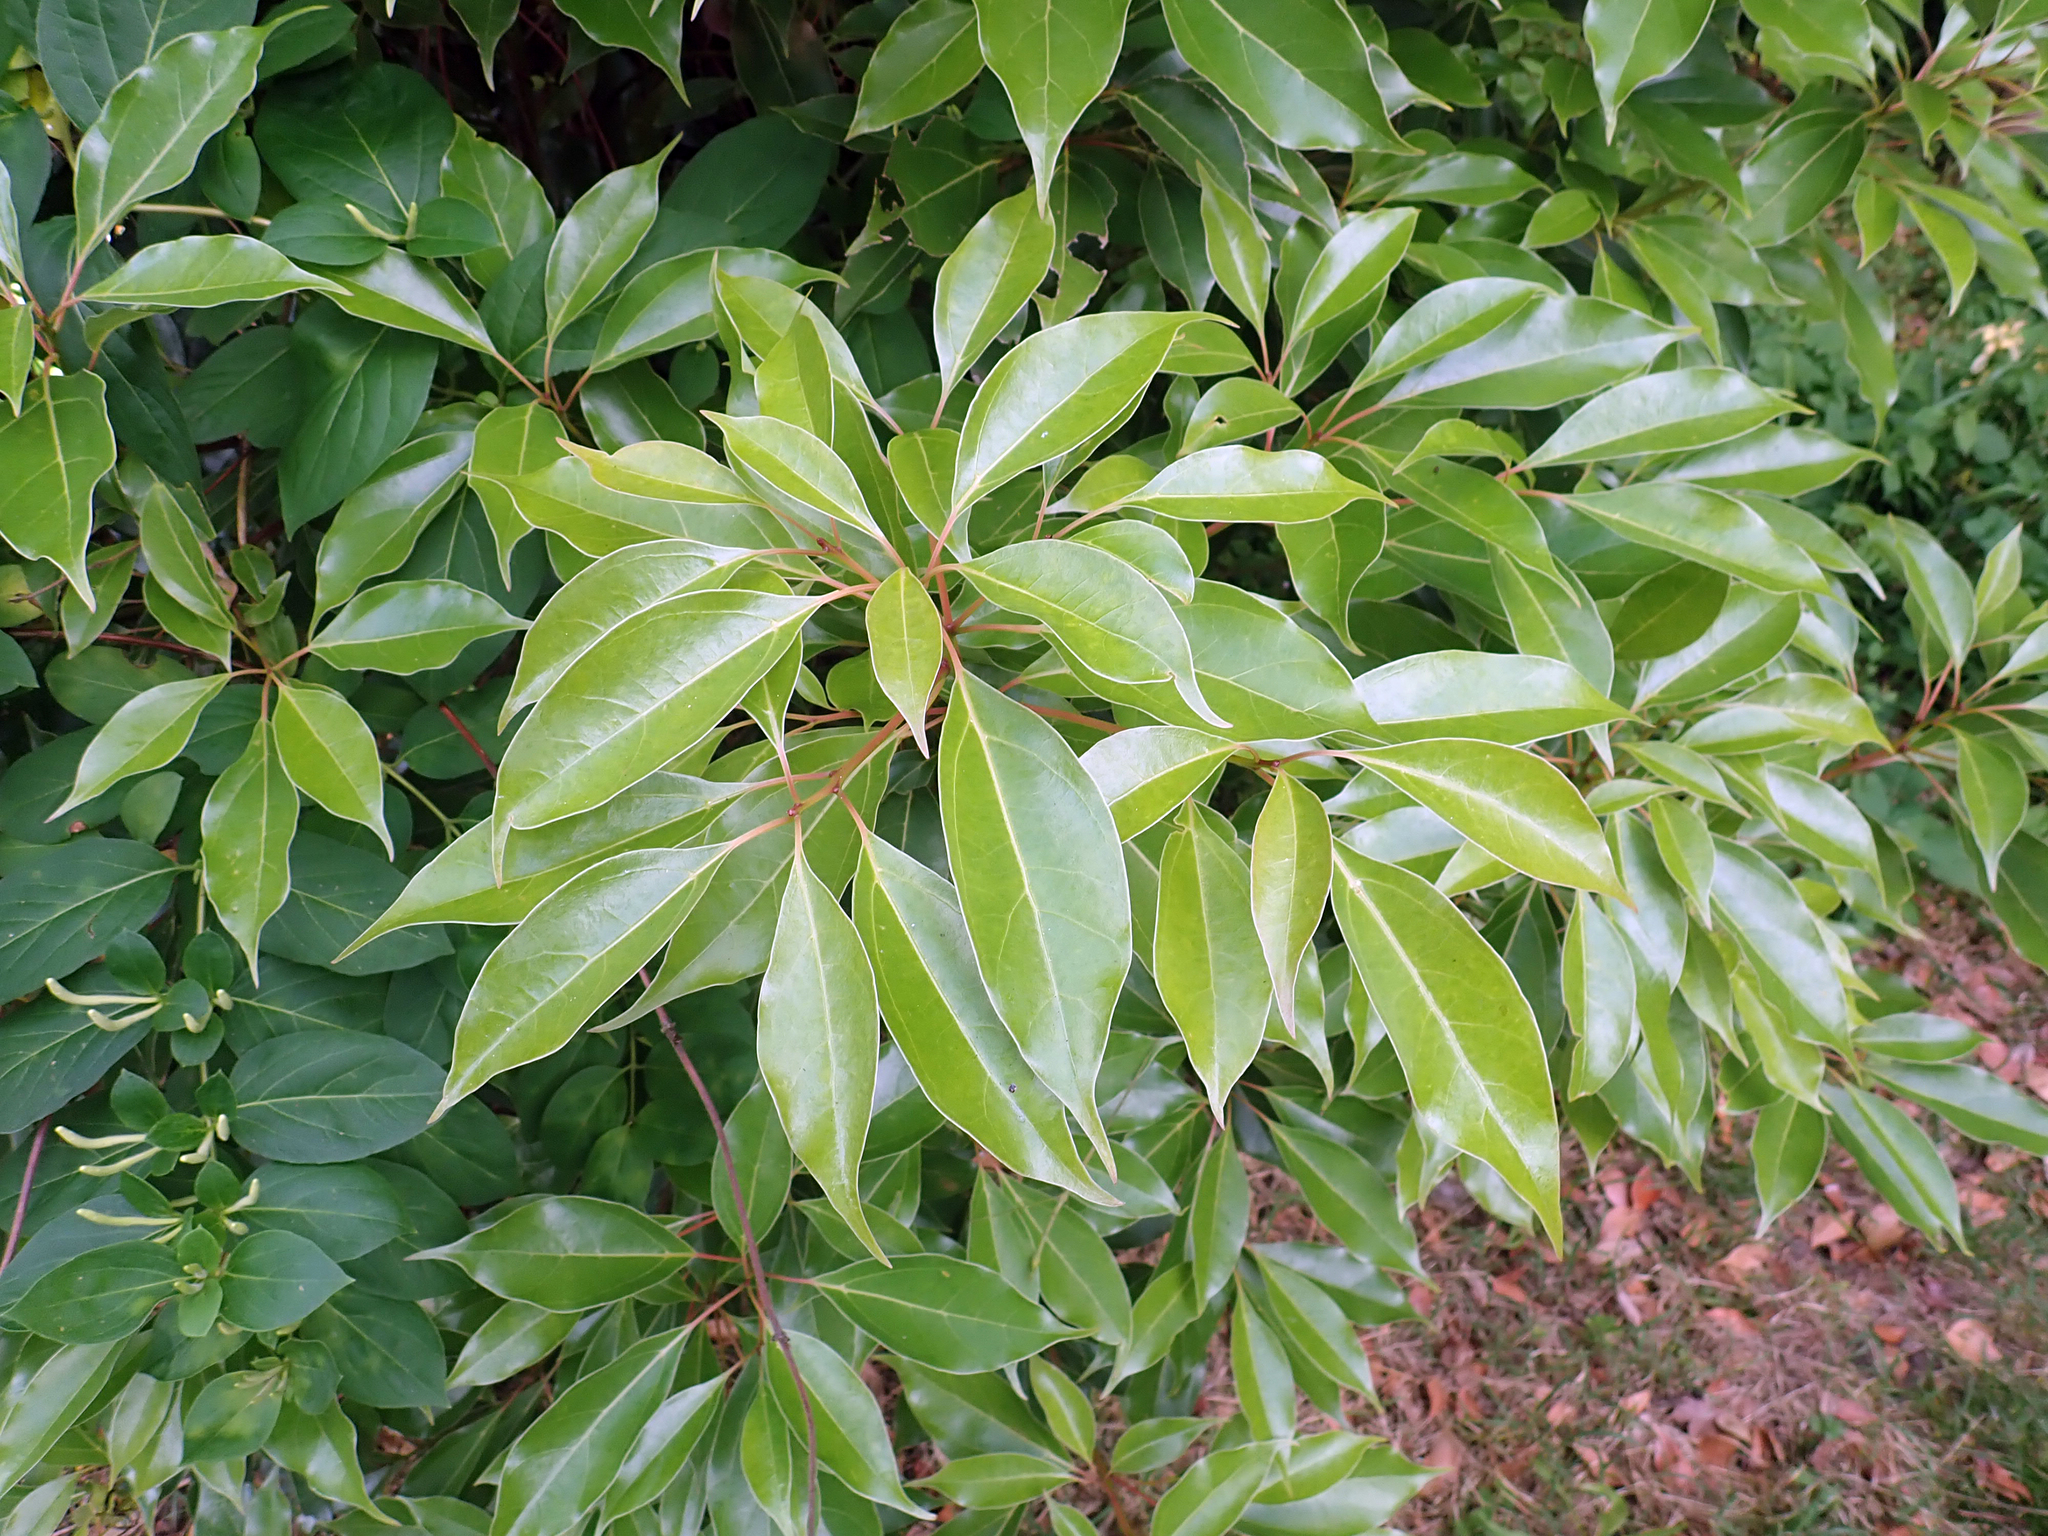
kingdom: Plantae
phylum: Tracheophyta
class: Magnoliopsida
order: Laurales
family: Lauraceae
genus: Cinnamomum
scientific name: Cinnamomum camphora
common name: Camphortree
